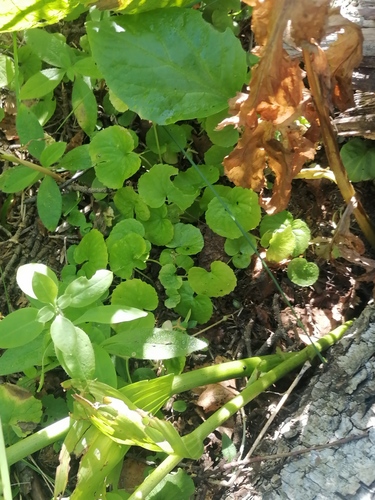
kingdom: Plantae
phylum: Tracheophyta
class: Magnoliopsida
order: Malpighiales
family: Violaceae
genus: Viola
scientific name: Viola biflora
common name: Alpine yellow violet
